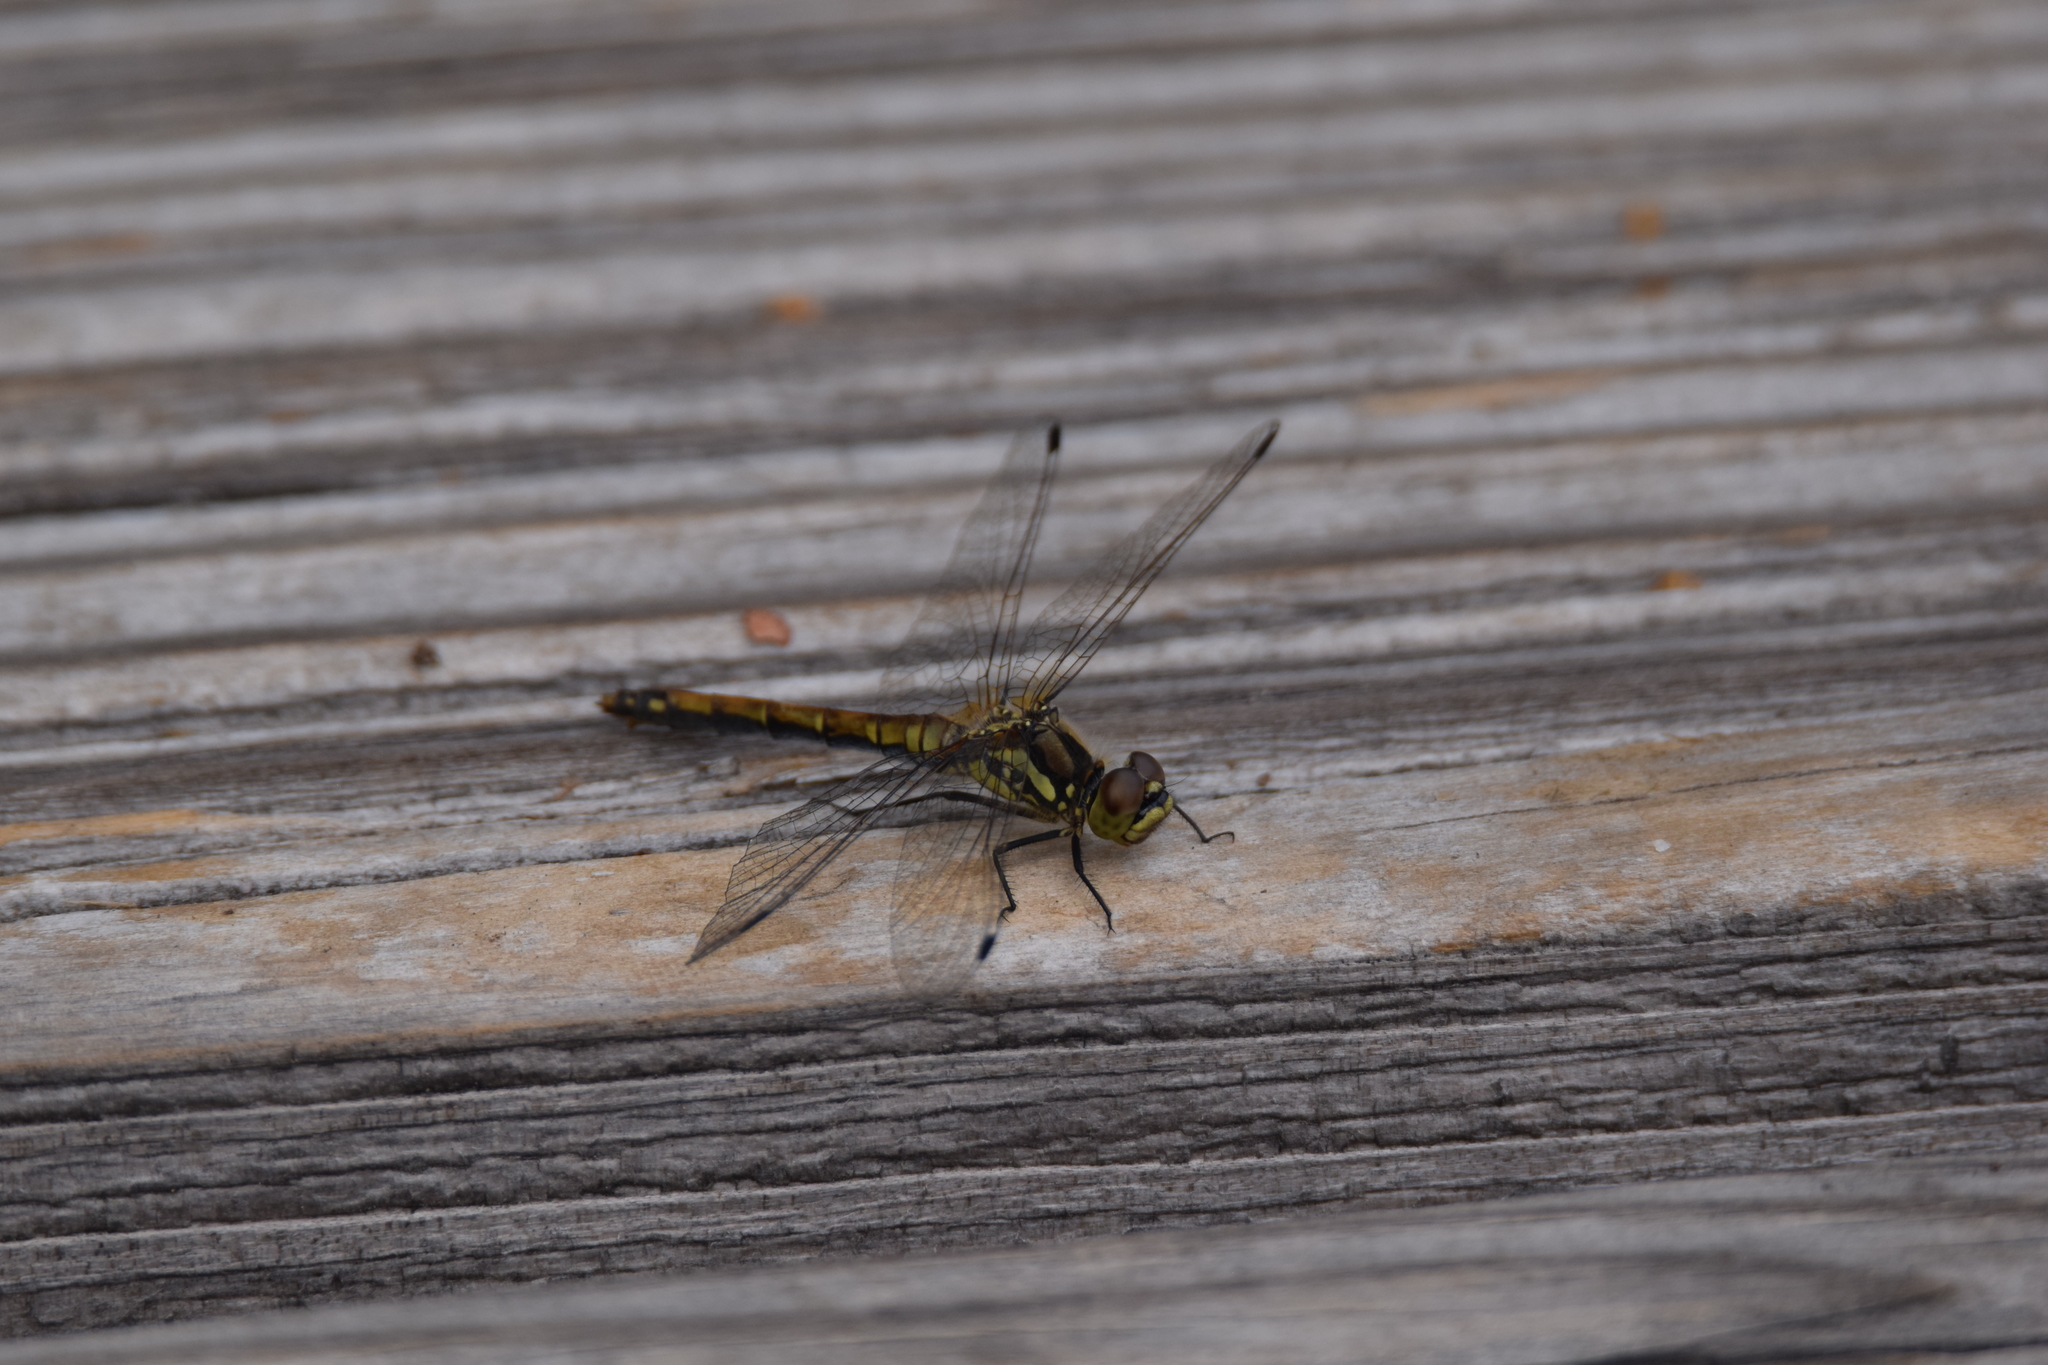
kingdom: Animalia
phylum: Arthropoda
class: Insecta
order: Odonata
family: Libellulidae
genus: Sympetrum
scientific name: Sympetrum danae
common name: Black darter
